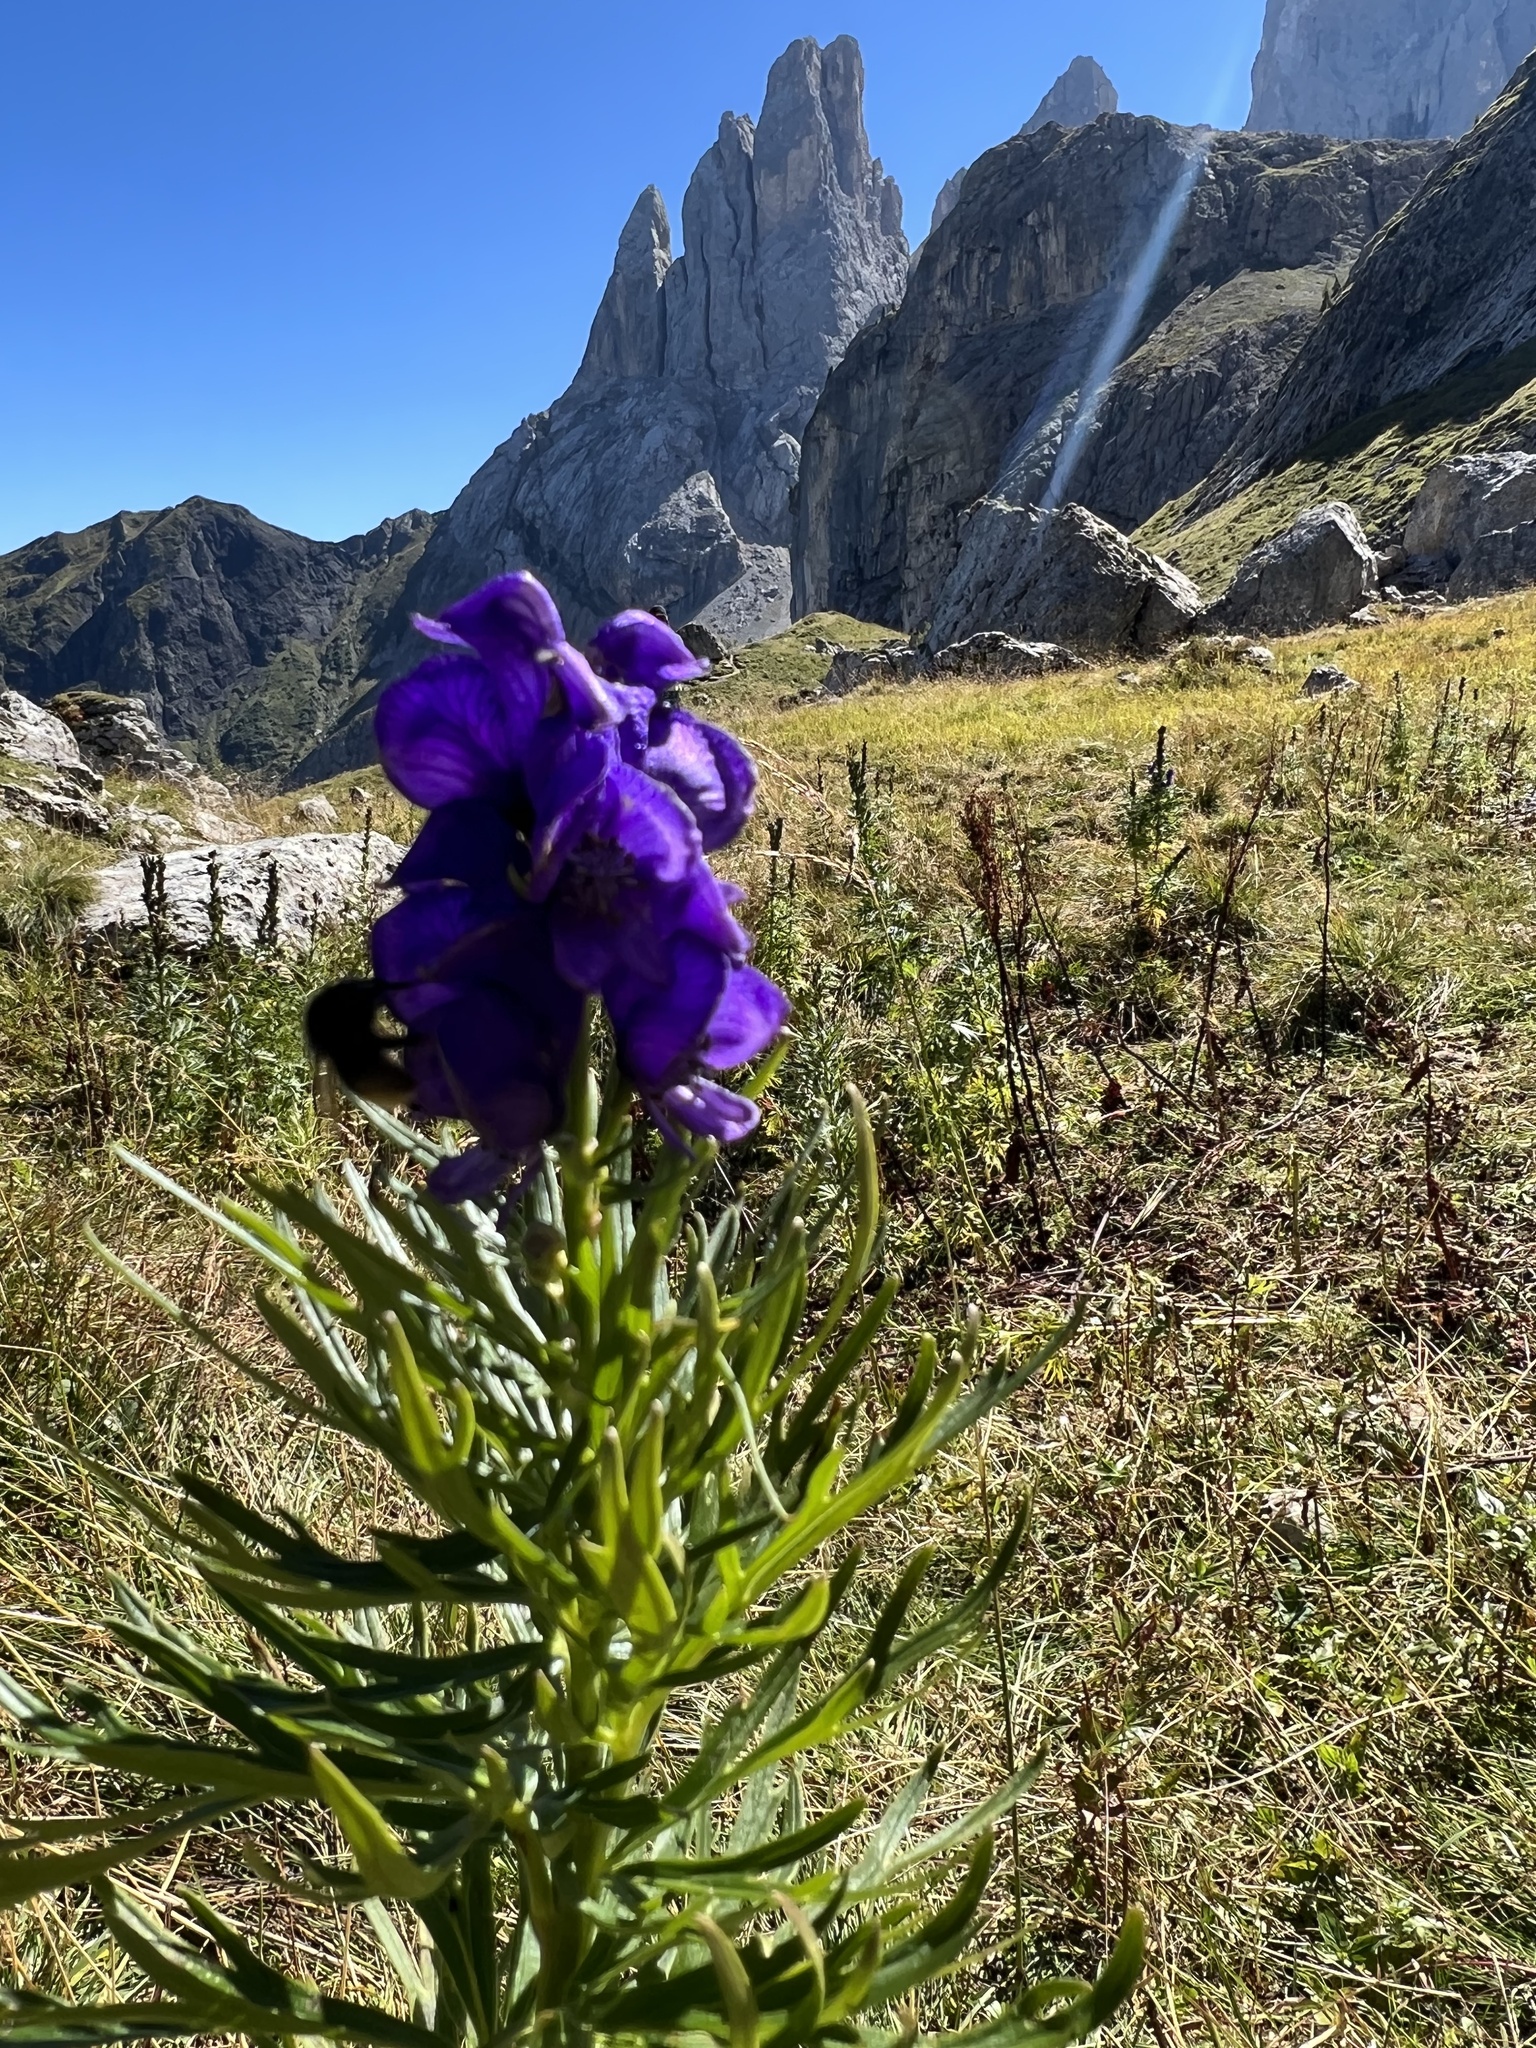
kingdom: Plantae
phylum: Tracheophyta
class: Magnoliopsida
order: Ranunculales
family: Ranunculaceae
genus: Aconitum
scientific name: Aconitum tauricum
